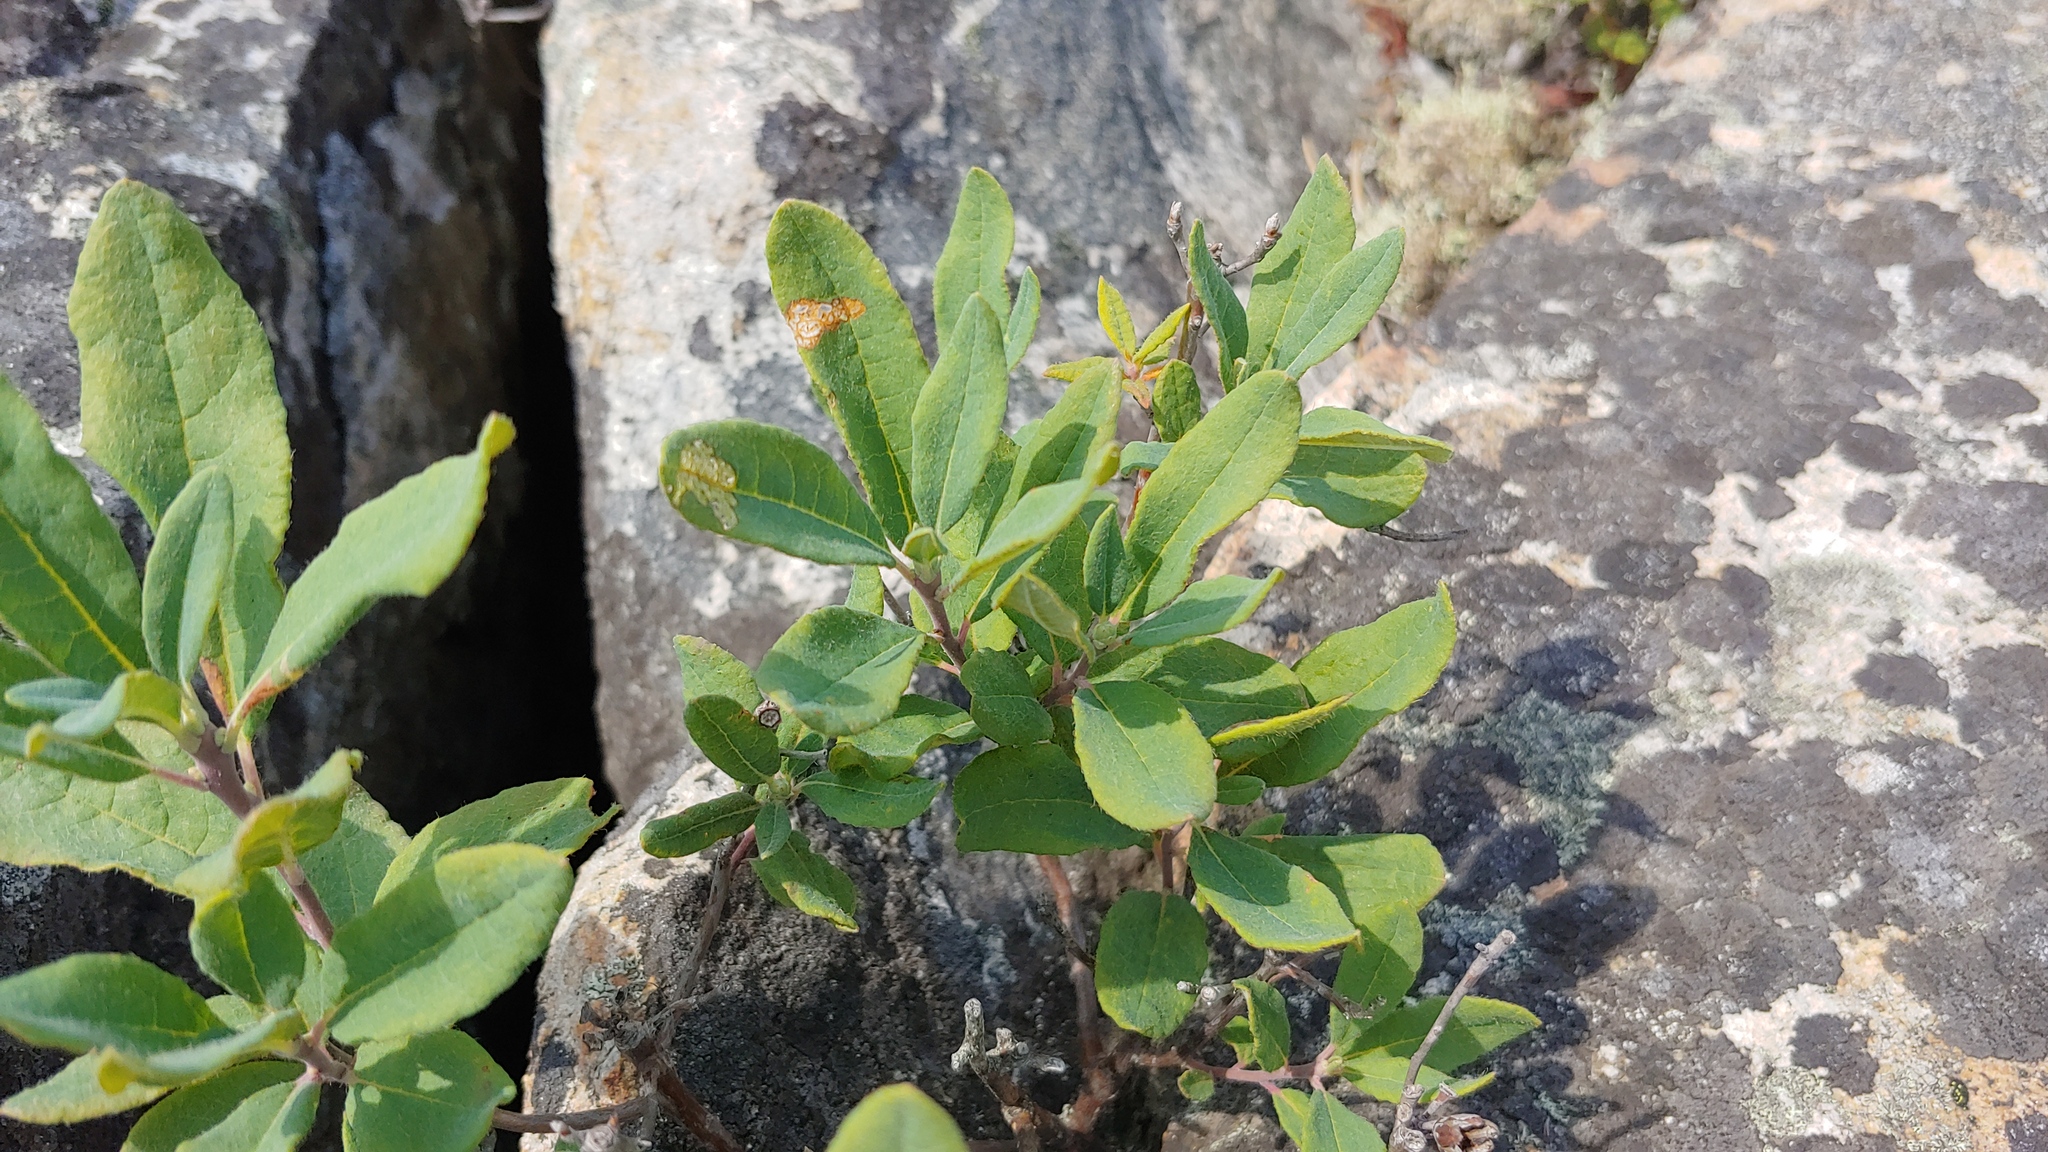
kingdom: Plantae
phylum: Tracheophyta
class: Magnoliopsida
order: Ericales
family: Ericaceae
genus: Rhododendron
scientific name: Rhododendron canadense
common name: Rhodora
